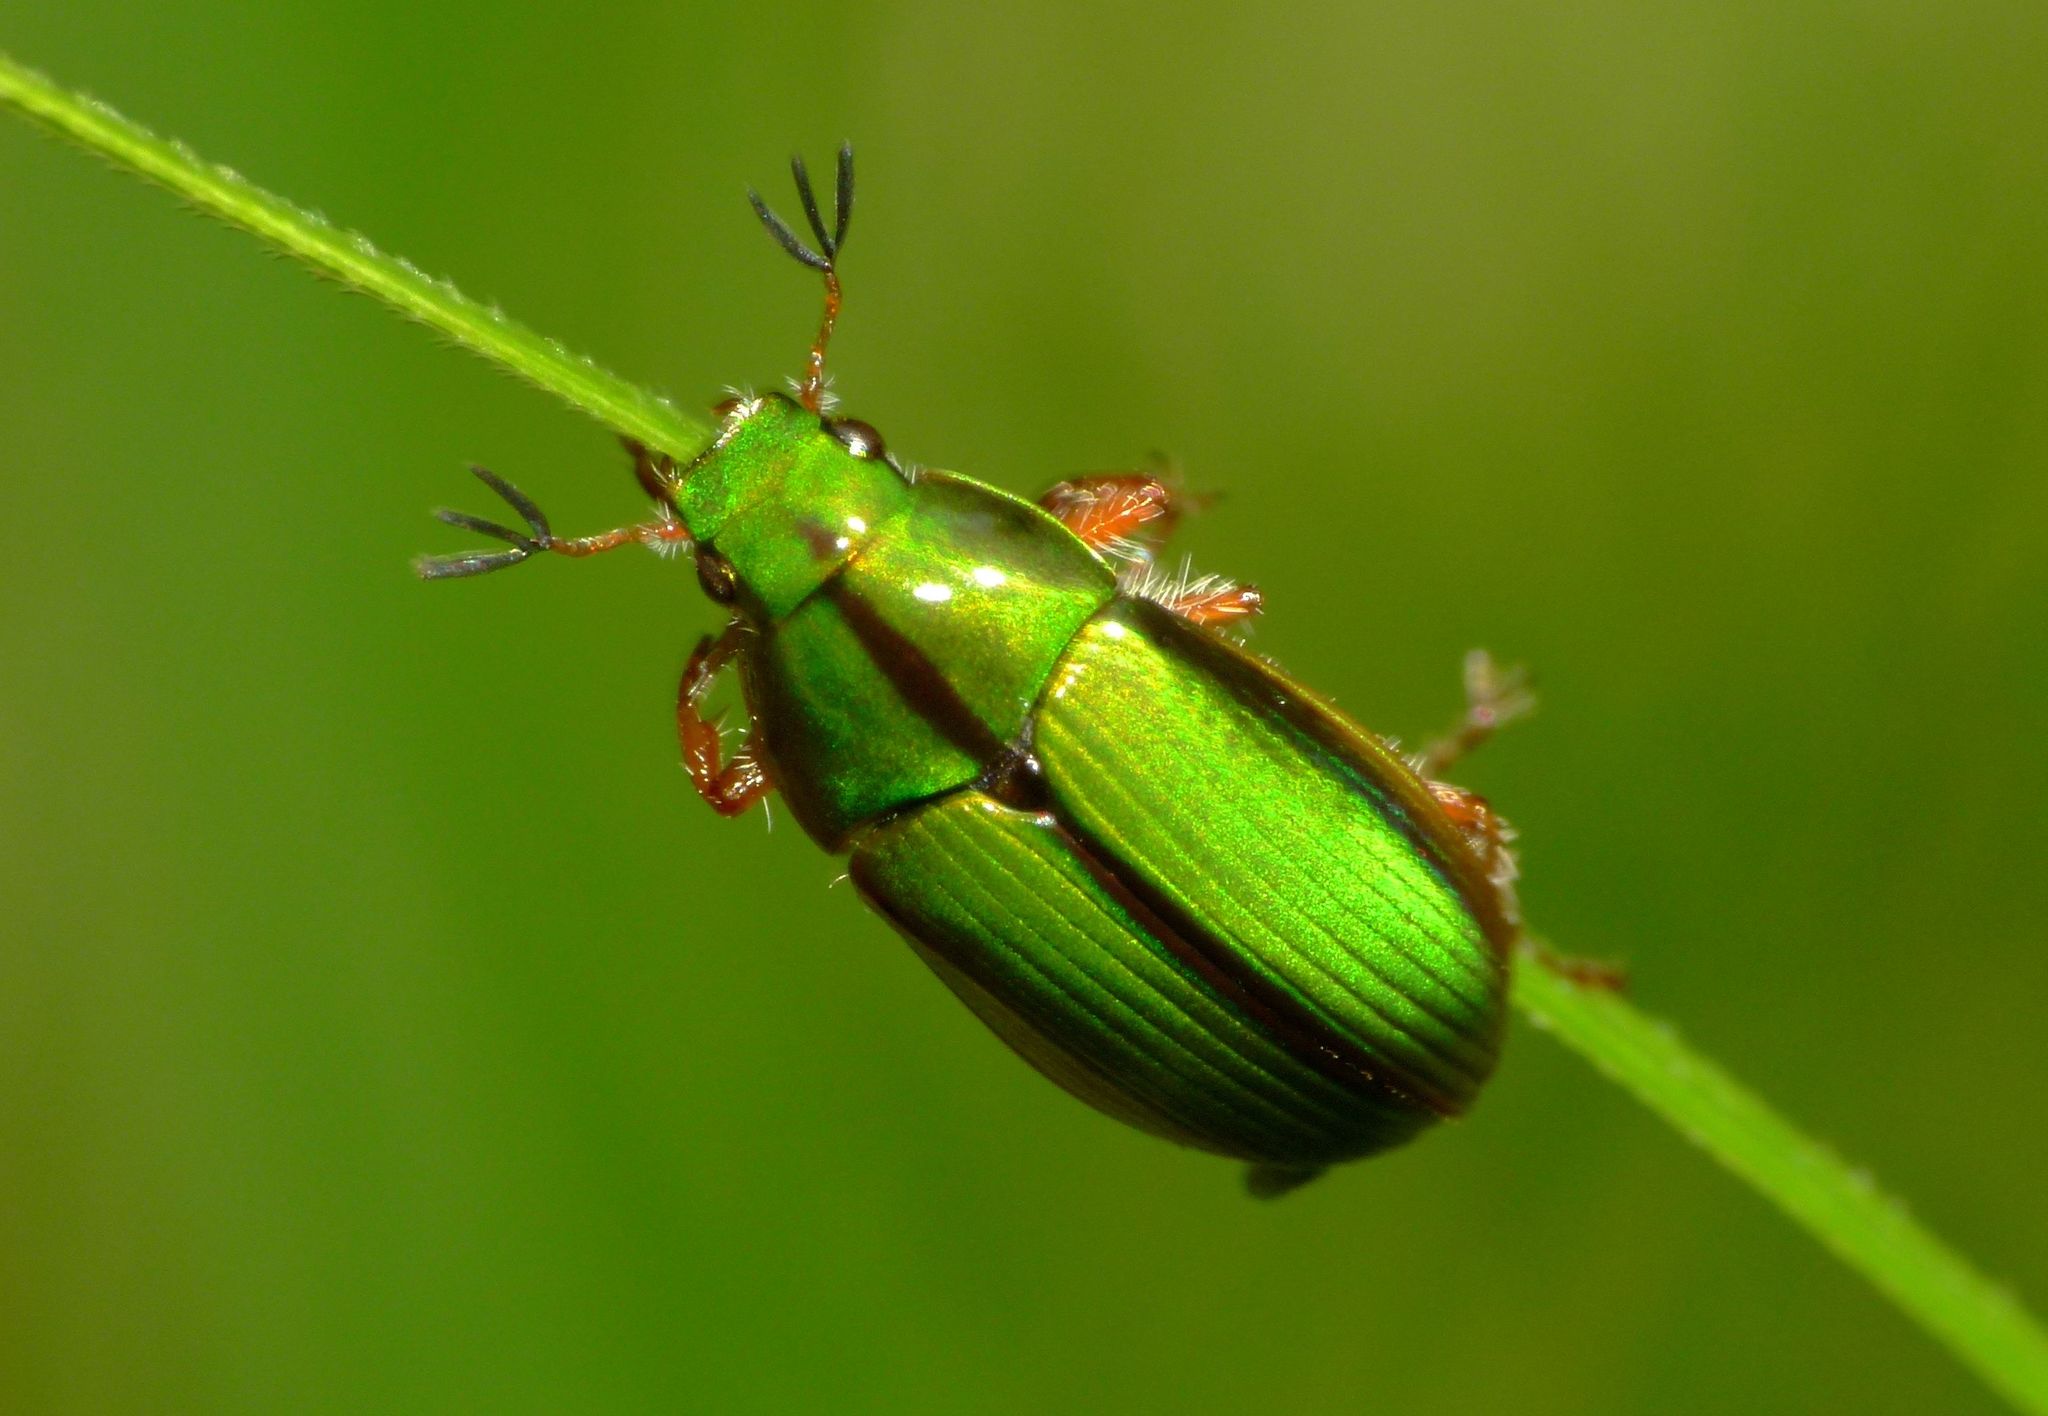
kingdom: Animalia
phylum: Arthropoda
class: Insecta
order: Coleoptera
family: Scarabaeidae
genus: Pyronota
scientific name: Pyronota festiva
